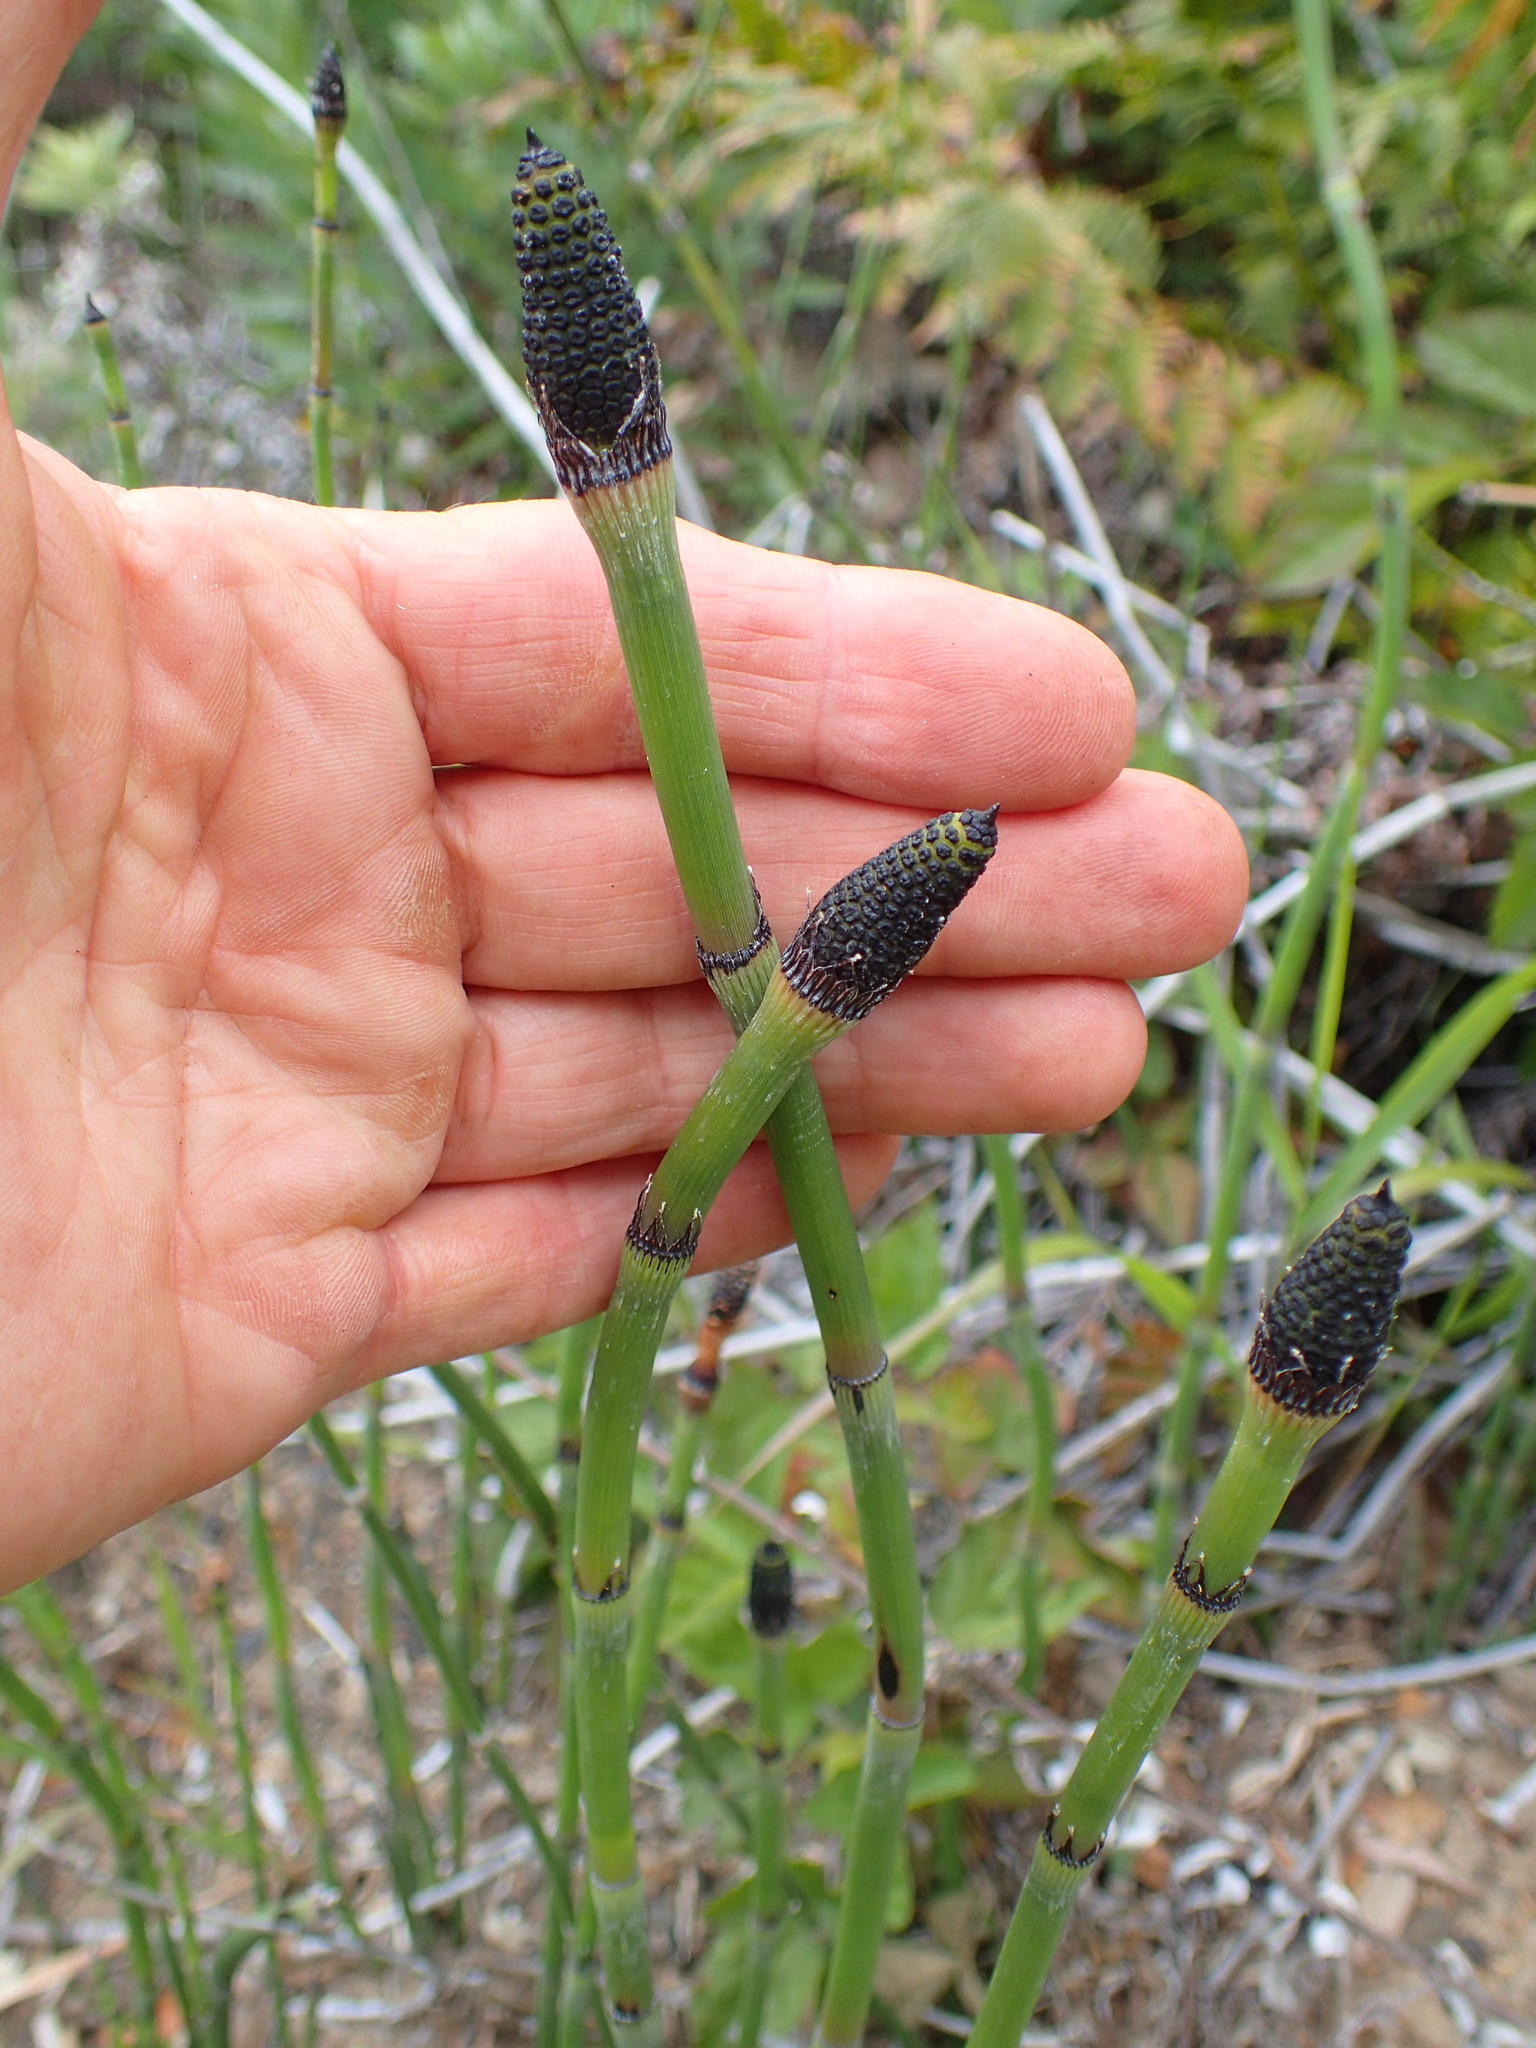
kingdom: Plantae
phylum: Tracheophyta
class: Polypodiopsida
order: Equisetales
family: Equisetaceae
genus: Equisetum
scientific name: Equisetum hyemale
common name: Rough horsetail
